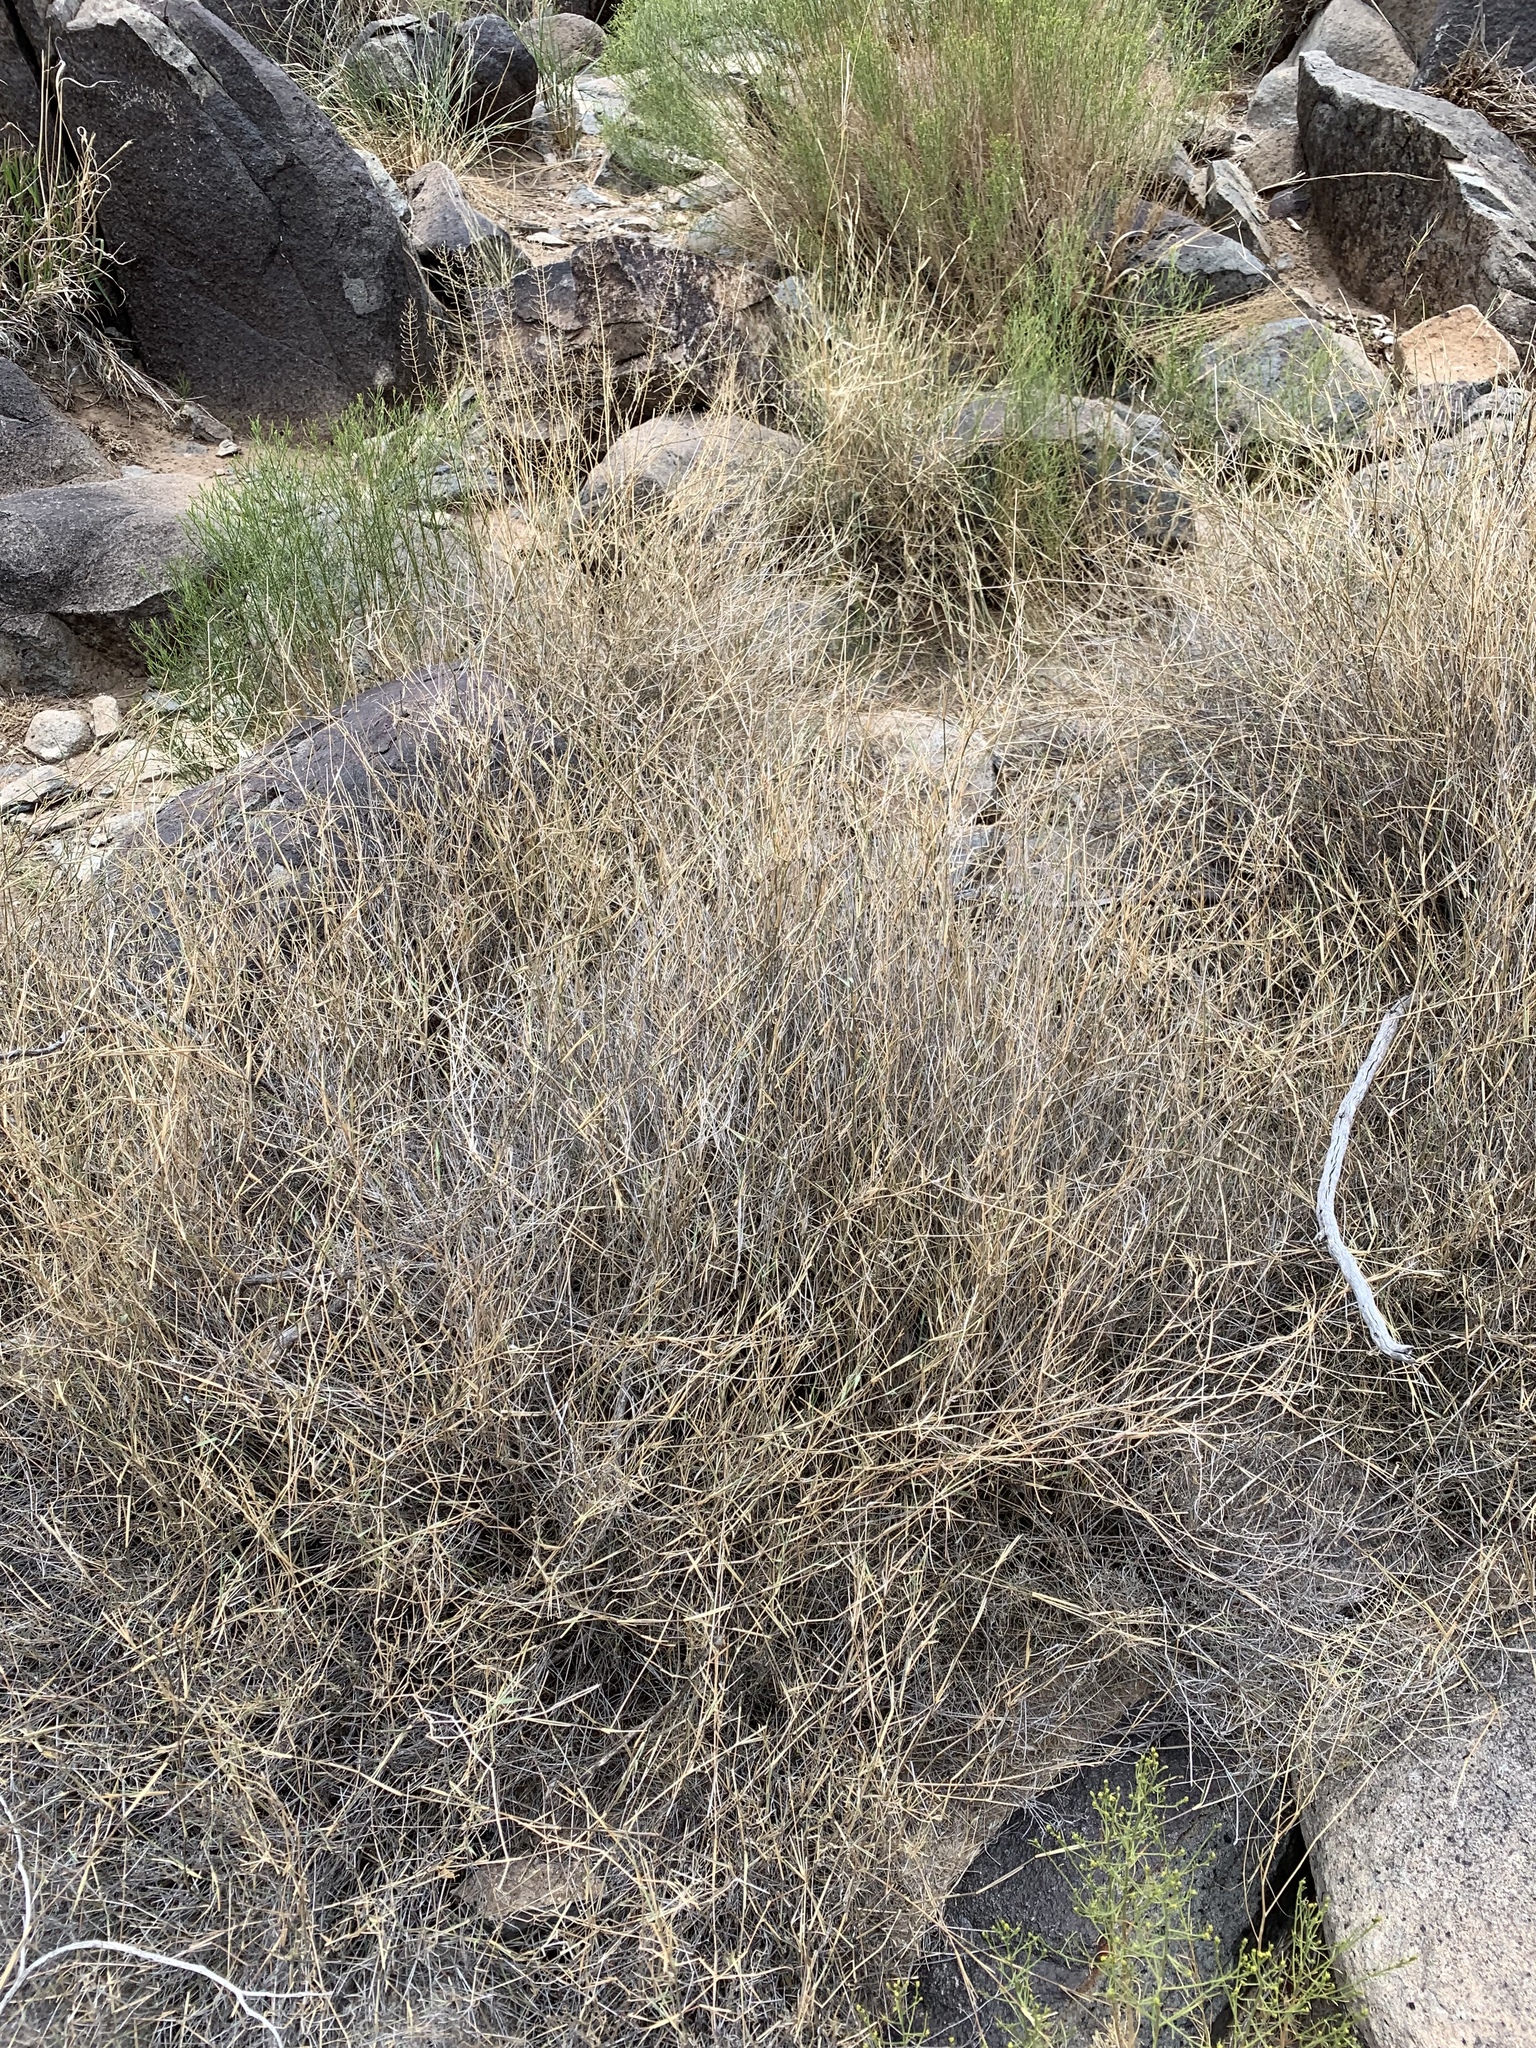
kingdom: Plantae
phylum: Tracheophyta
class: Liliopsida
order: Poales
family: Poaceae
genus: Muhlenbergia
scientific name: Muhlenbergia porteri
